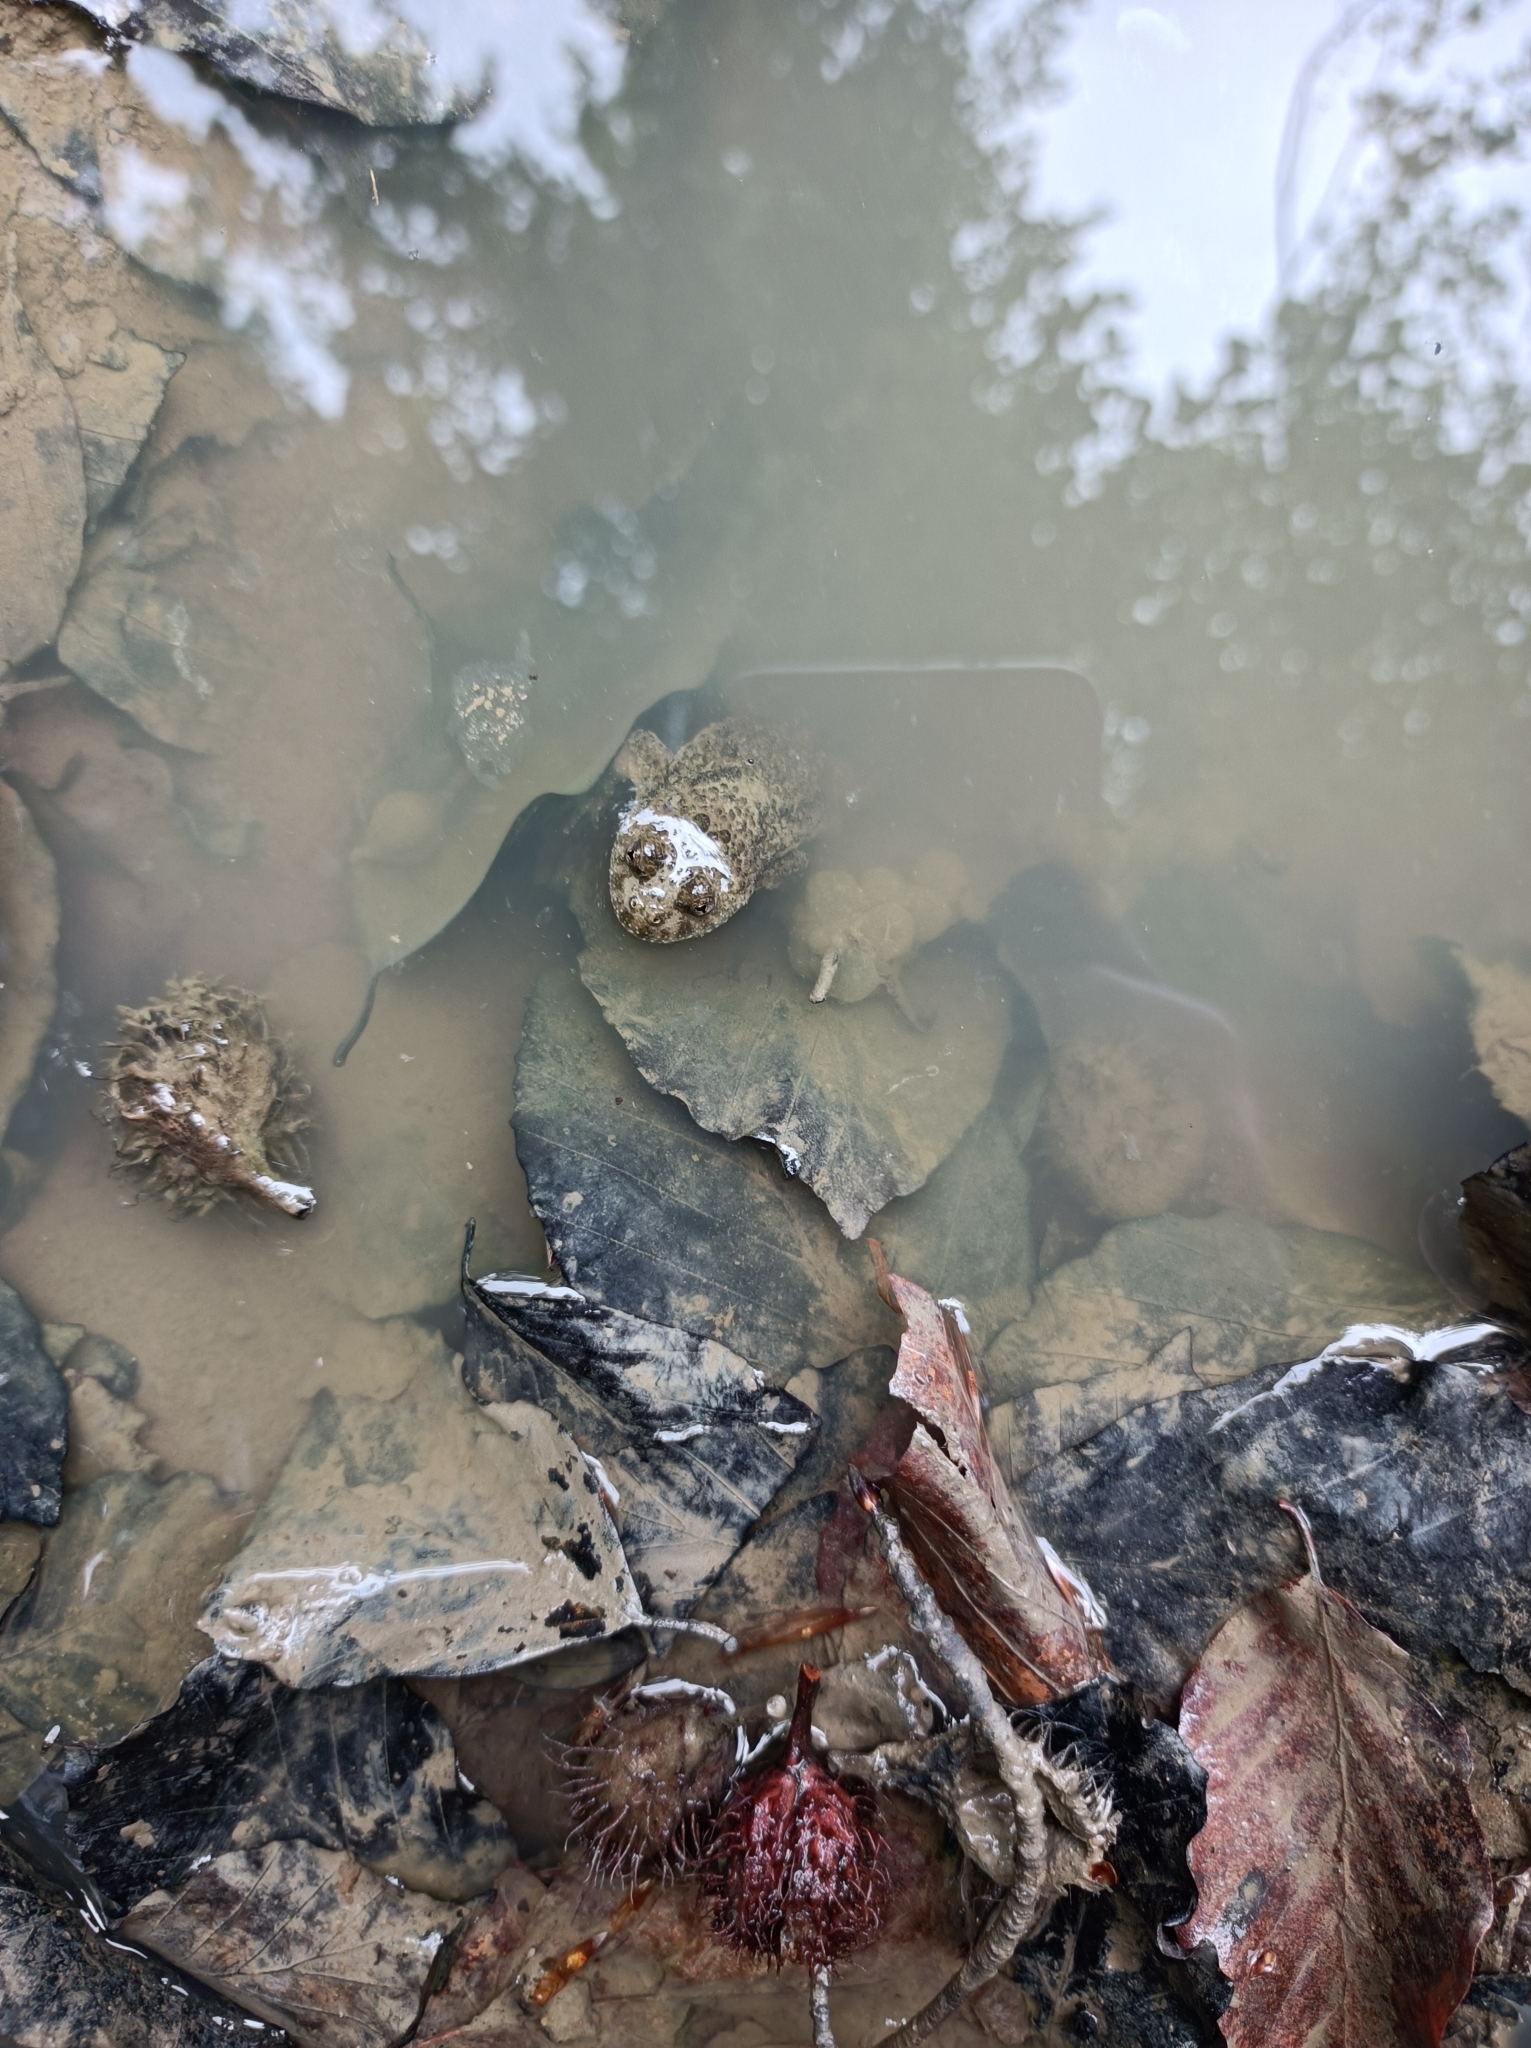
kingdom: Animalia
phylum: Chordata
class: Amphibia
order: Anura
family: Bombinatoridae
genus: Bombina
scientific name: Bombina variegata
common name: Yellow-bellied toad
